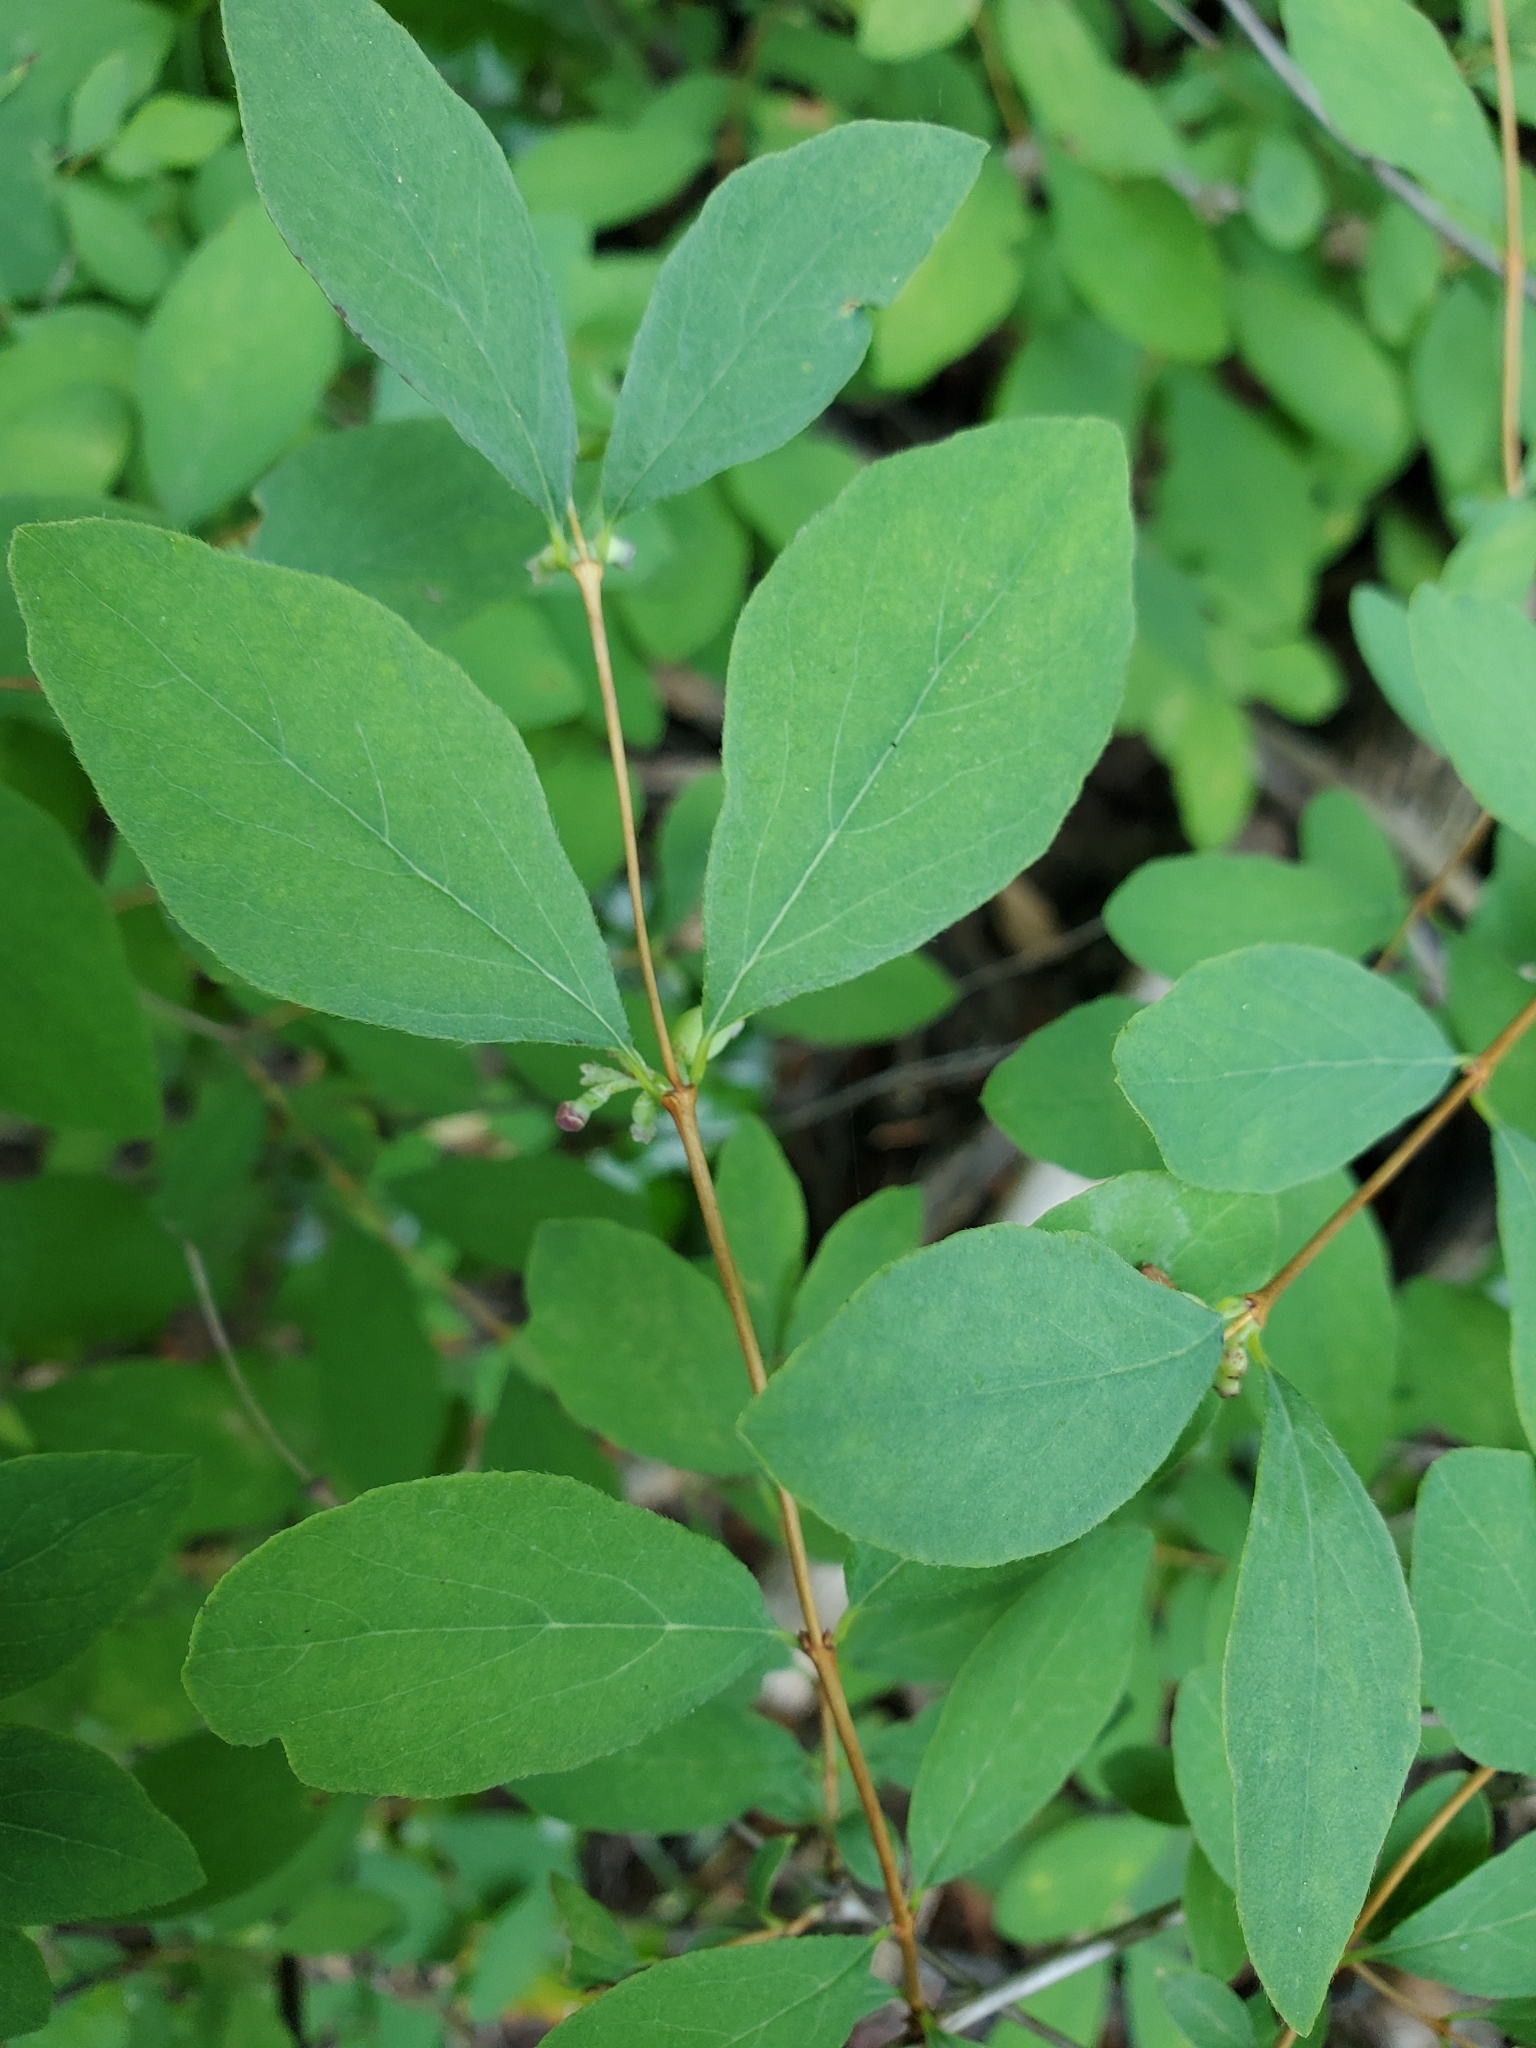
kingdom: Plantae
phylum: Tracheophyta
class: Magnoliopsida
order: Dipsacales
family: Caprifoliaceae
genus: Symphoricarpos
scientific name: Symphoricarpos albus
